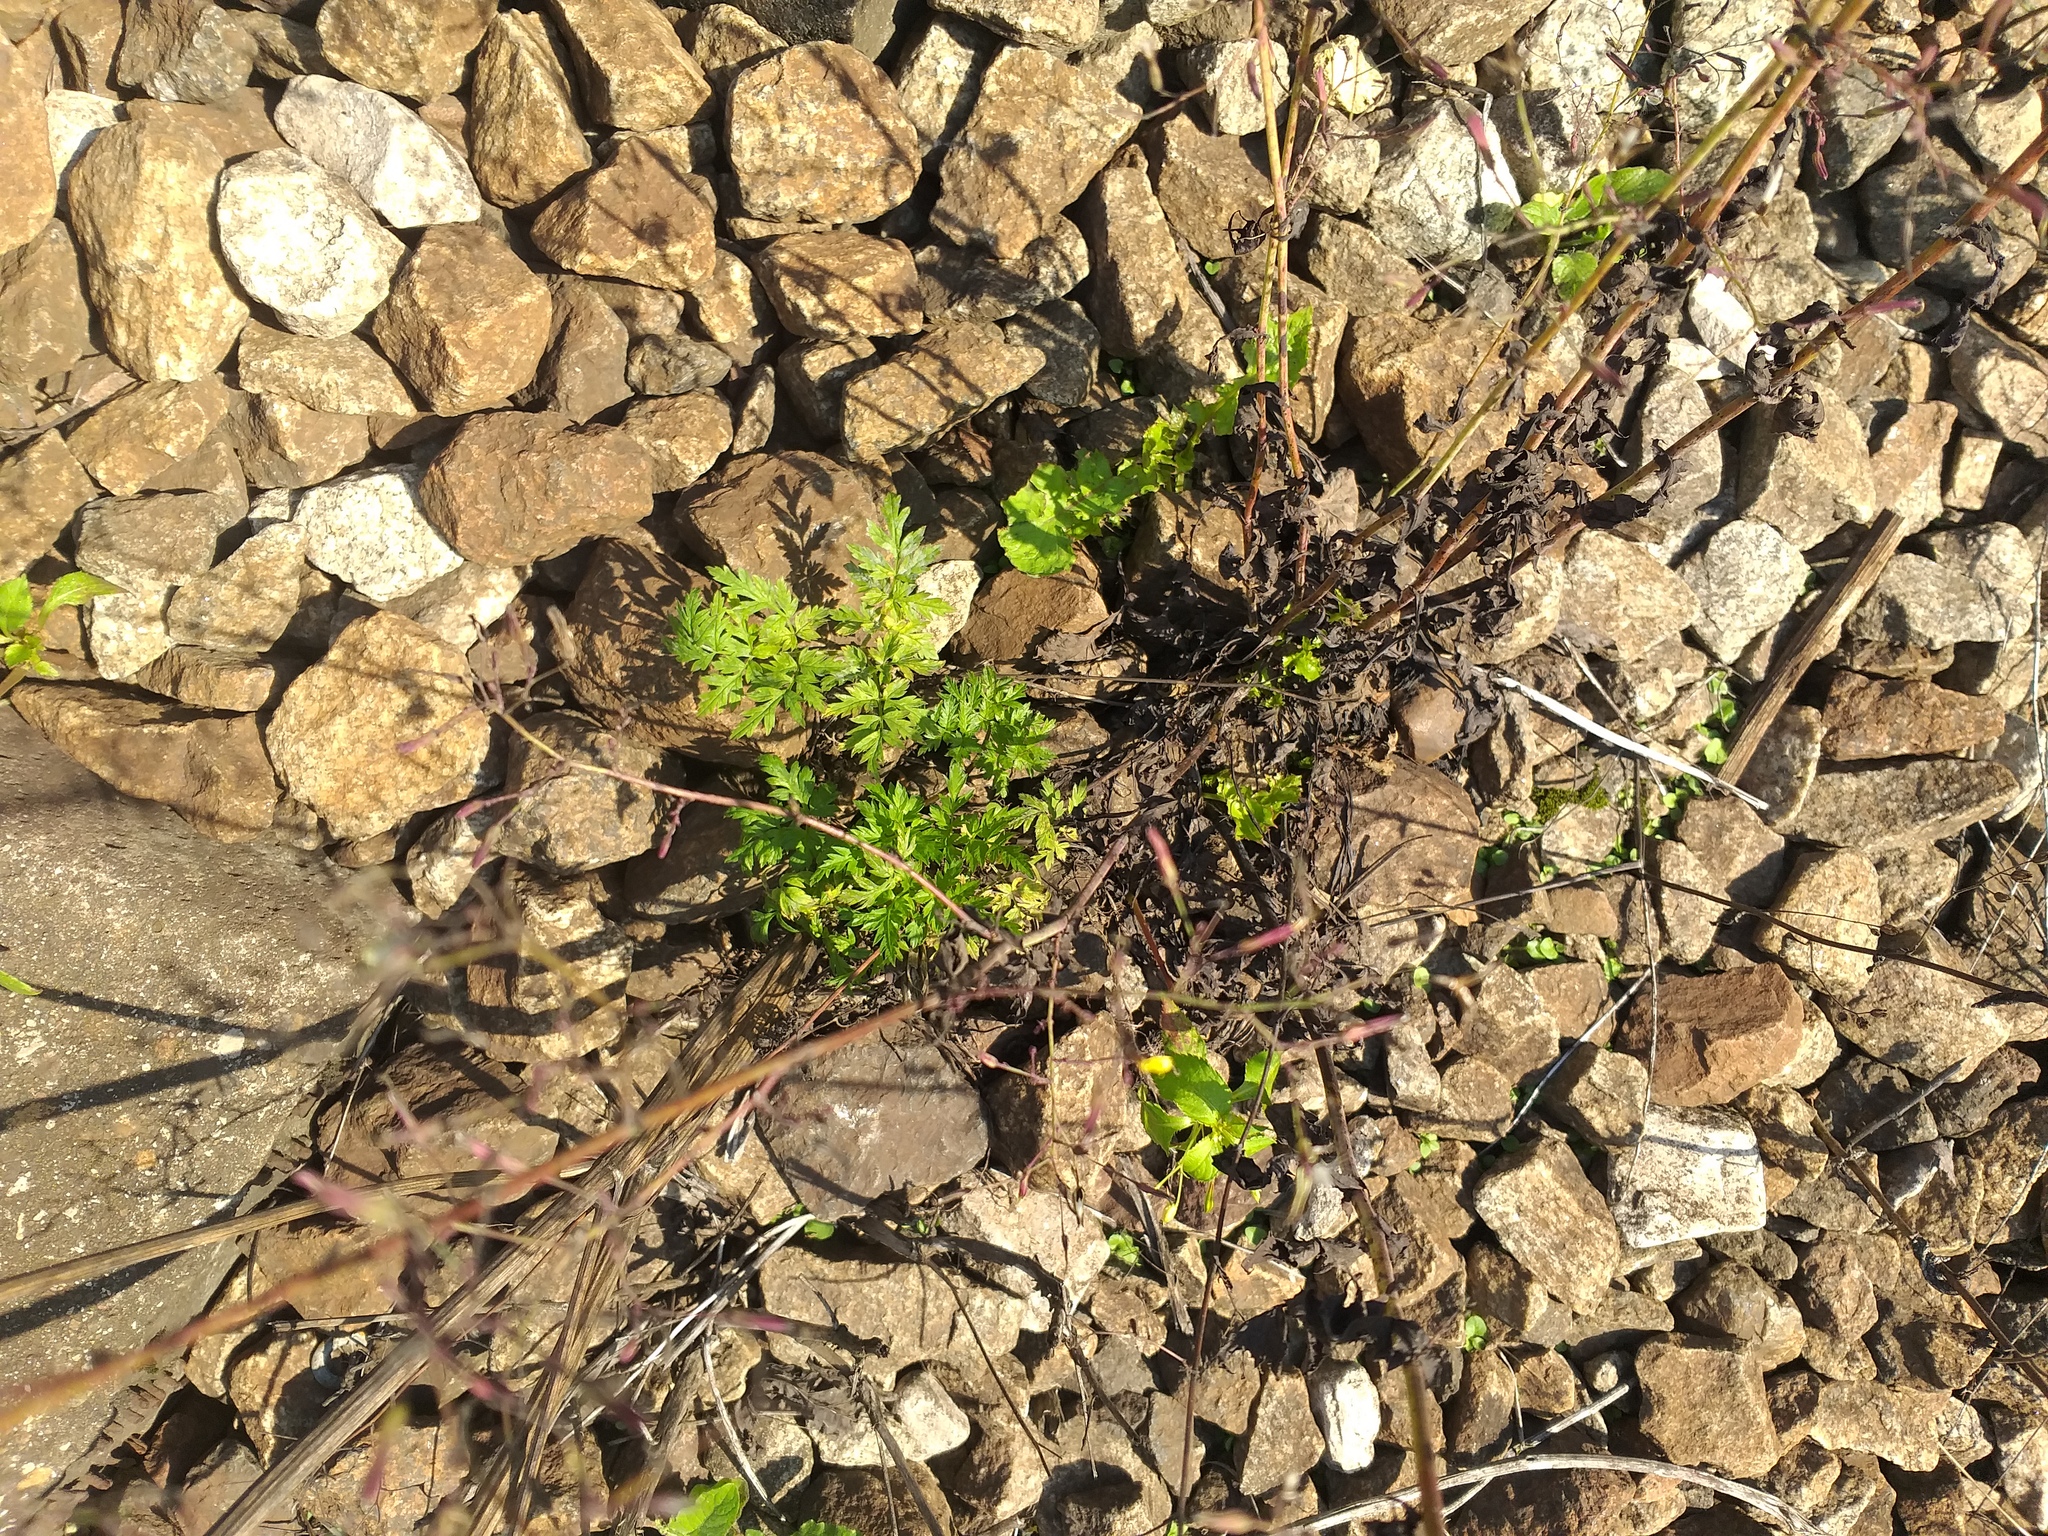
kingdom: Plantae
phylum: Tracheophyta
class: Magnoliopsida
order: Apiales
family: Apiaceae
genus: Anthriscus
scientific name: Anthriscus sylvestris
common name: Cow parsley
